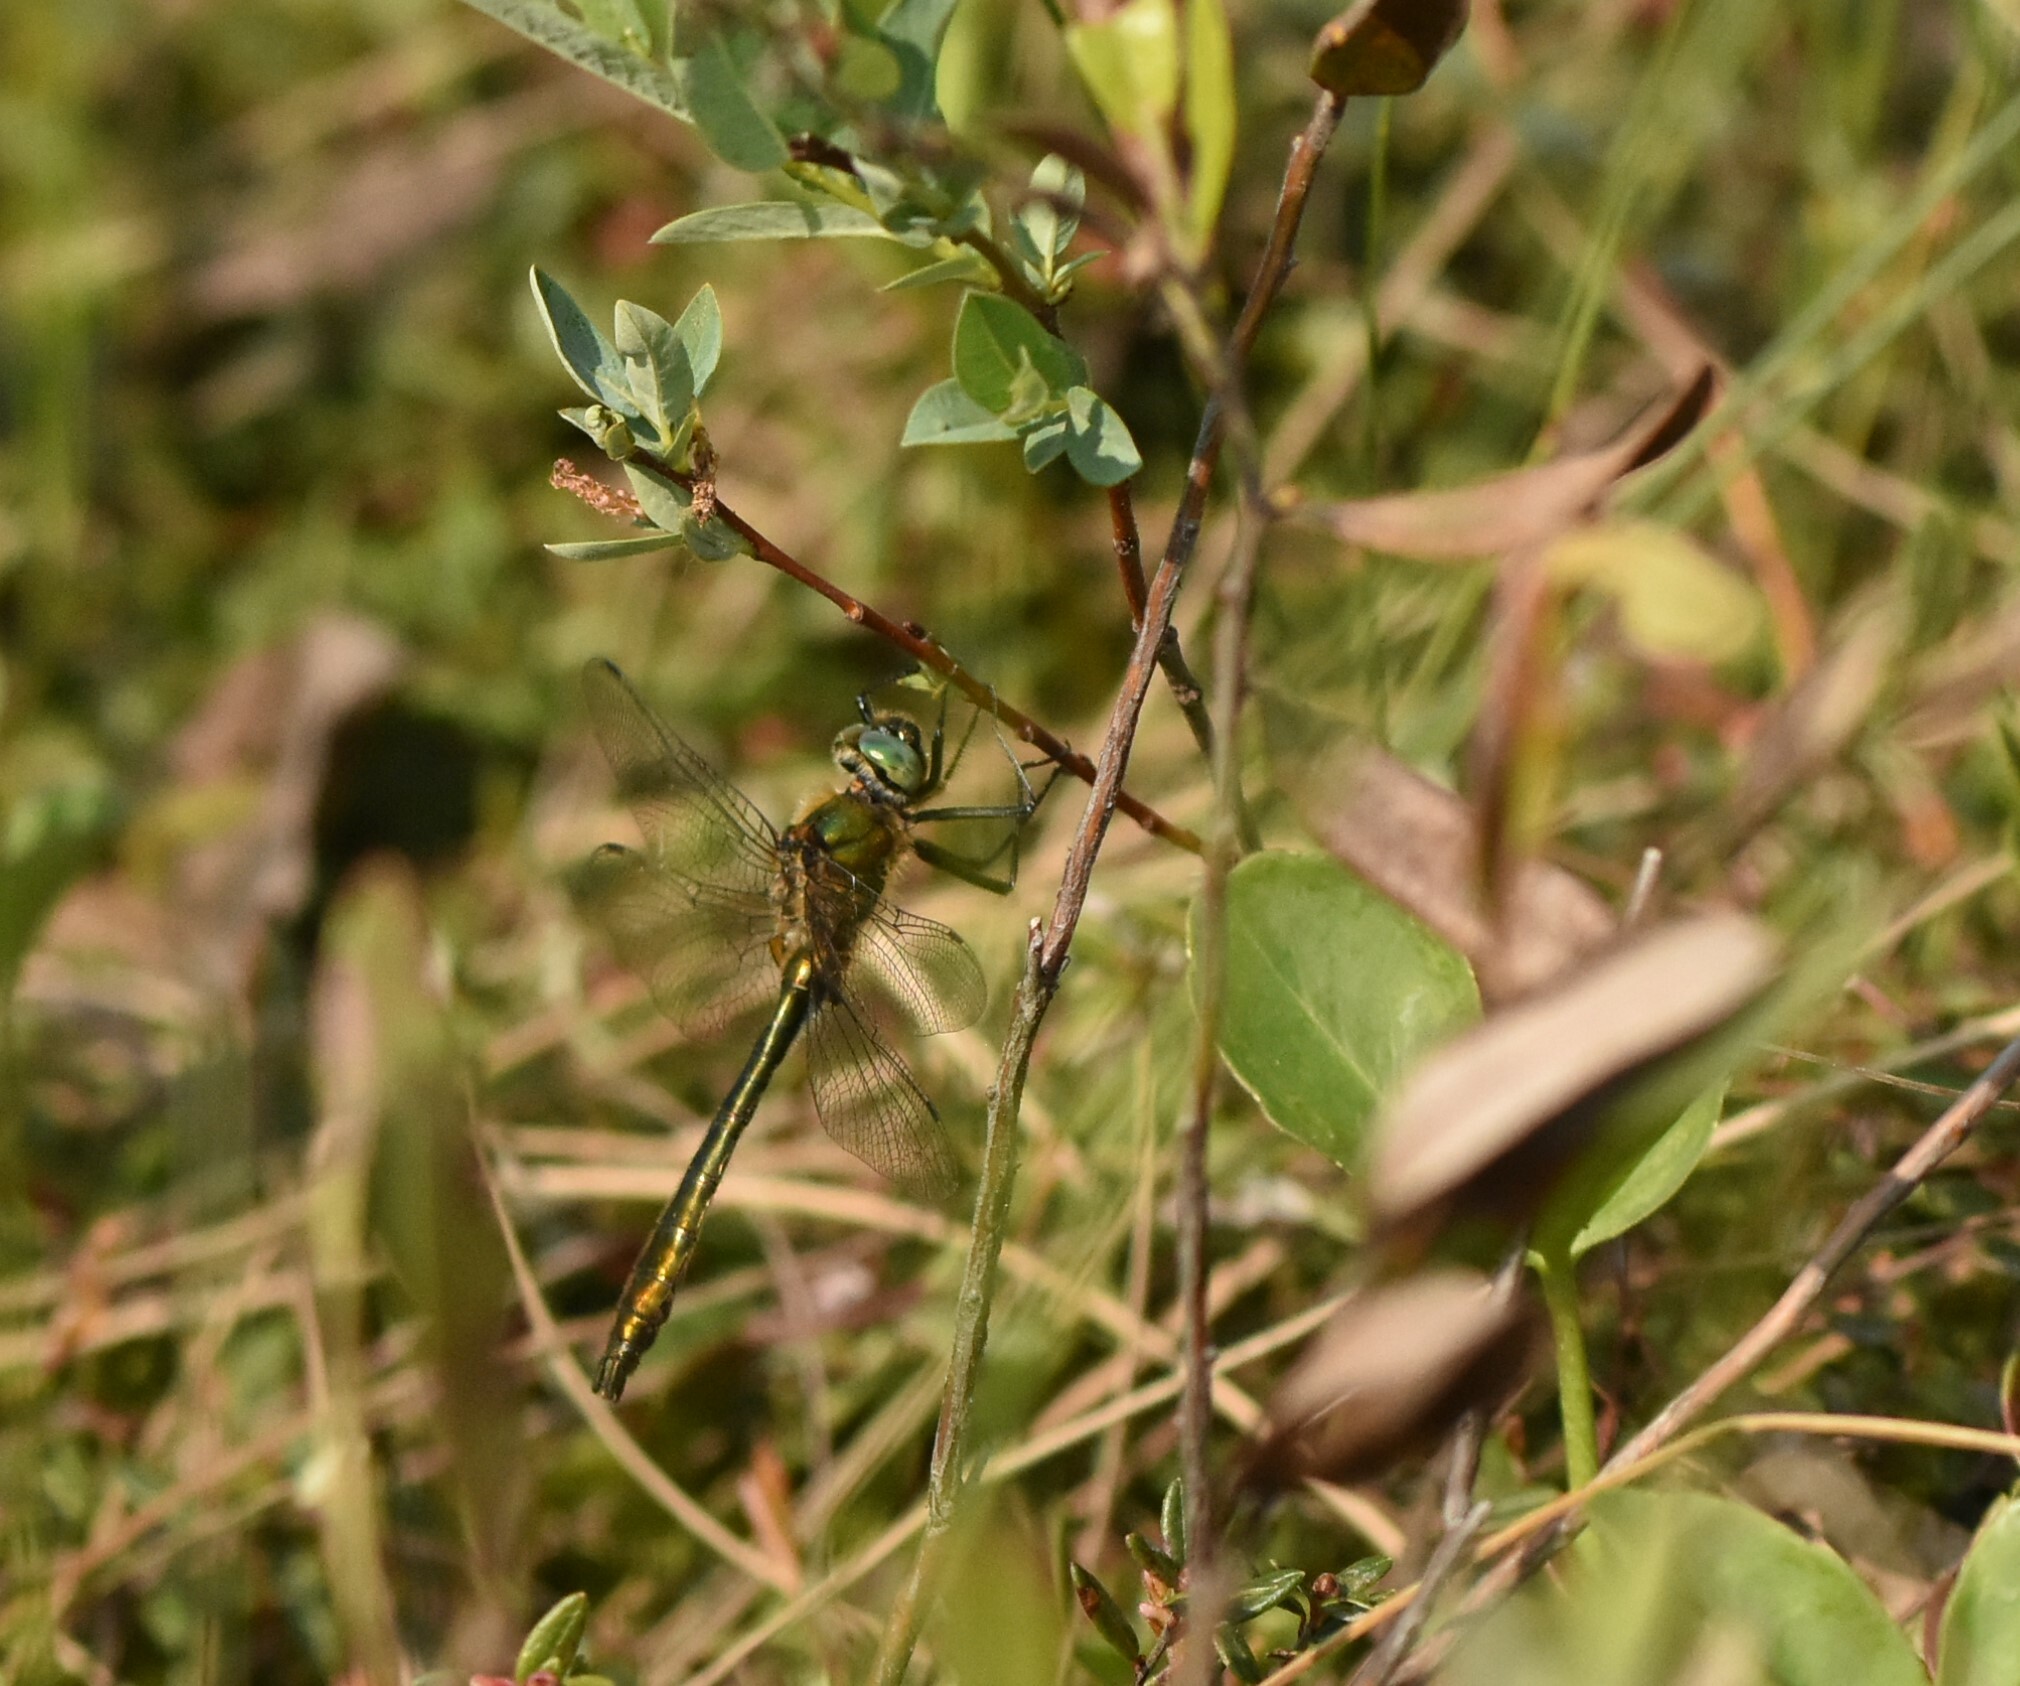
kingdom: Animalia
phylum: Arthropoda
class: Insecta
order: Odonata
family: Corduliidae
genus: Cordulia
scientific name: Cordulia aenea
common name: Downy emerald
